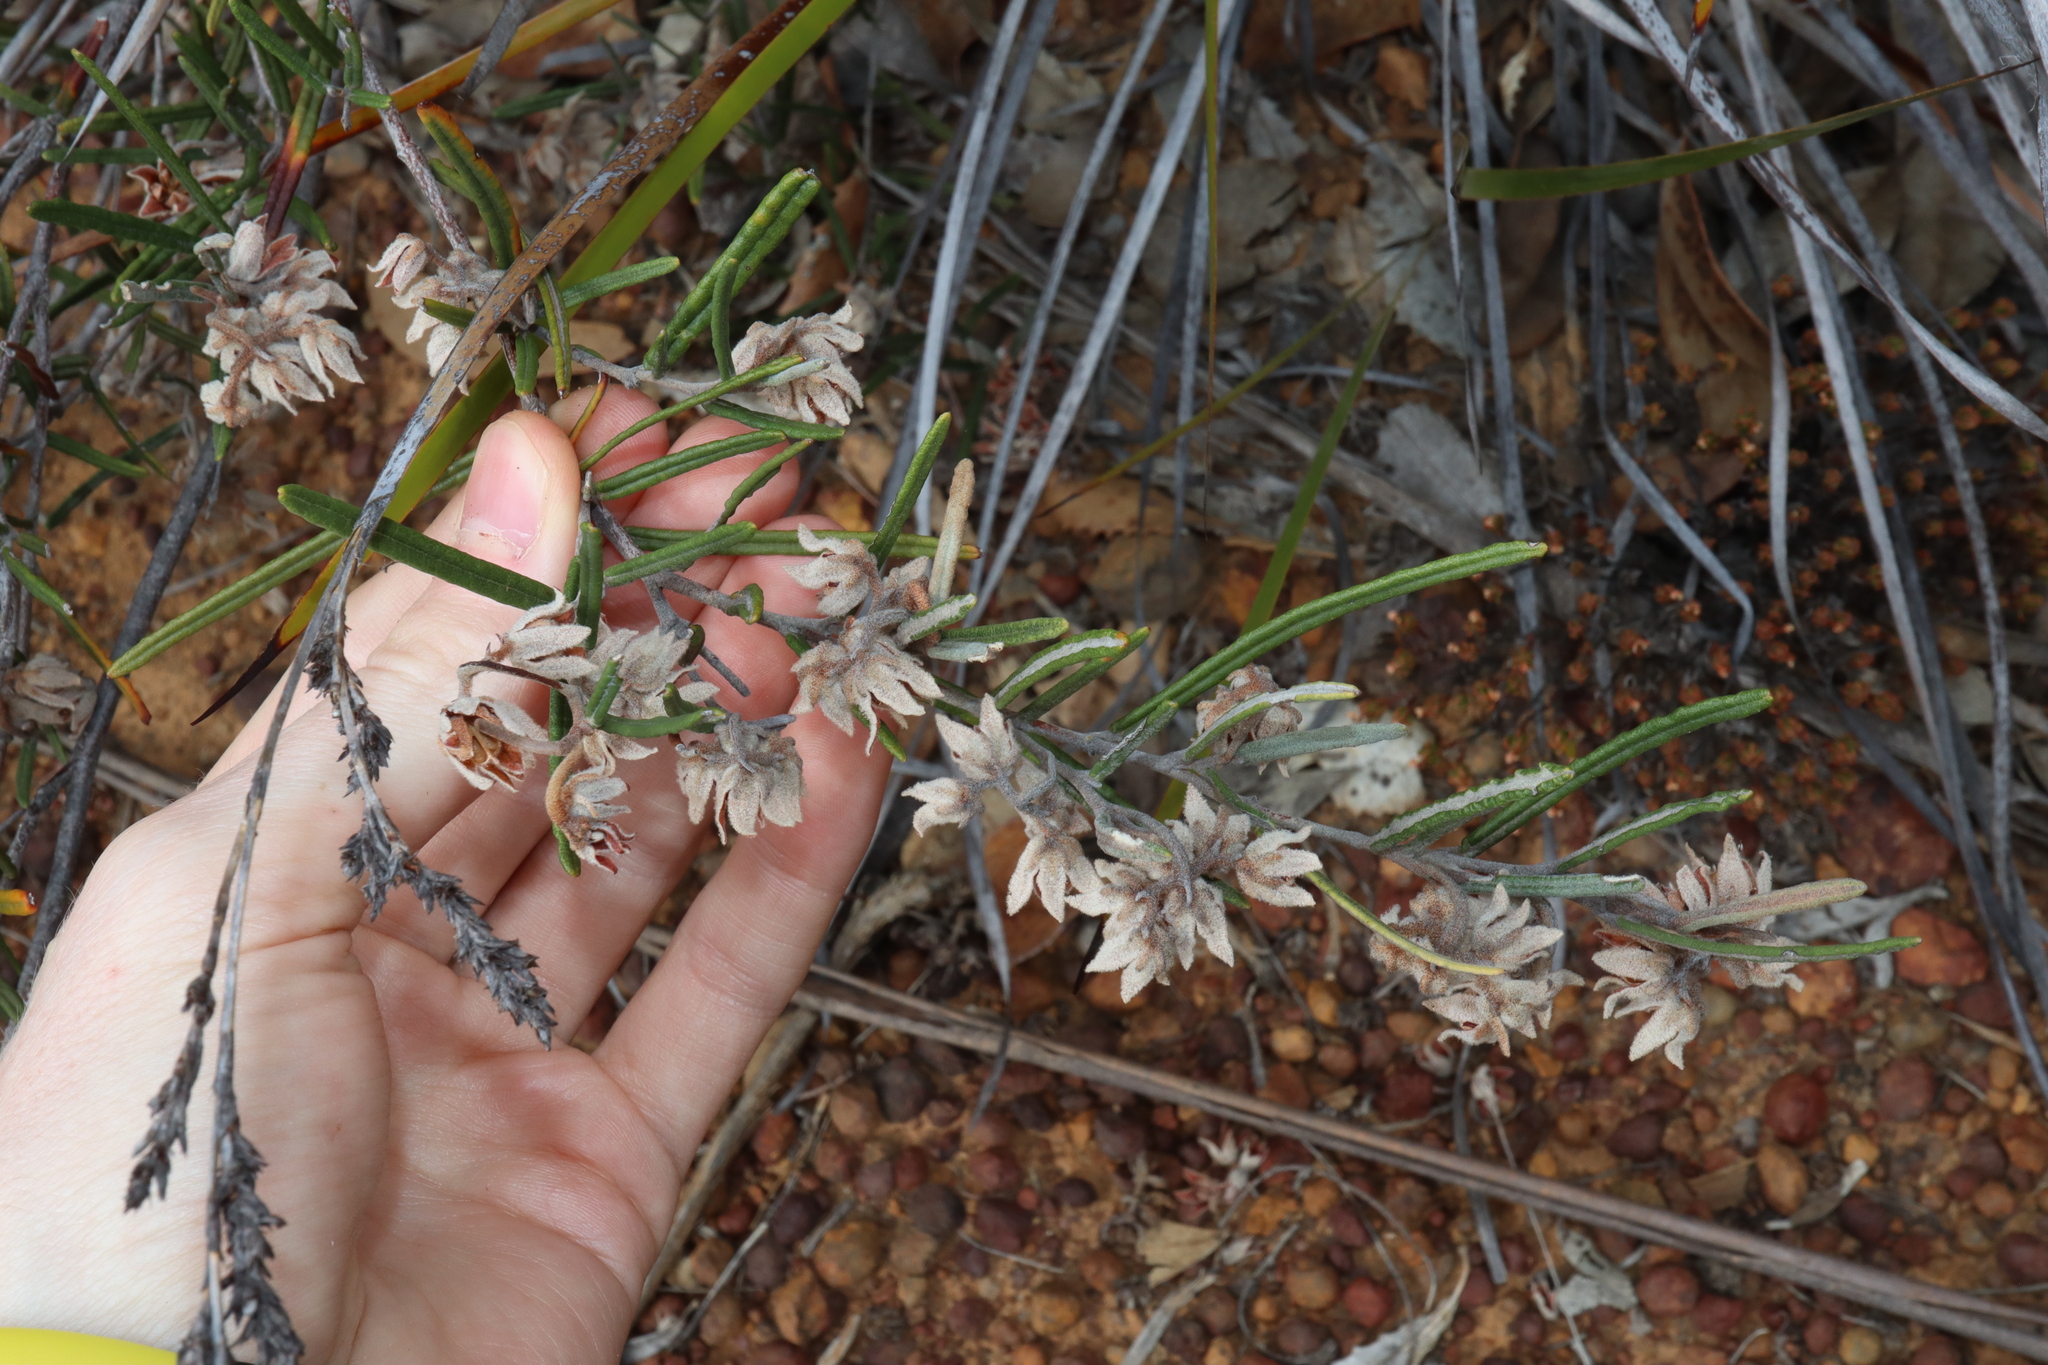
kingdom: Plantae
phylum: Tracheophyta
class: Magnoliopsida
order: Malvales
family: Malvaceae
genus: Lasiopetalum
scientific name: Lasiopetalum rosmarinifolium
